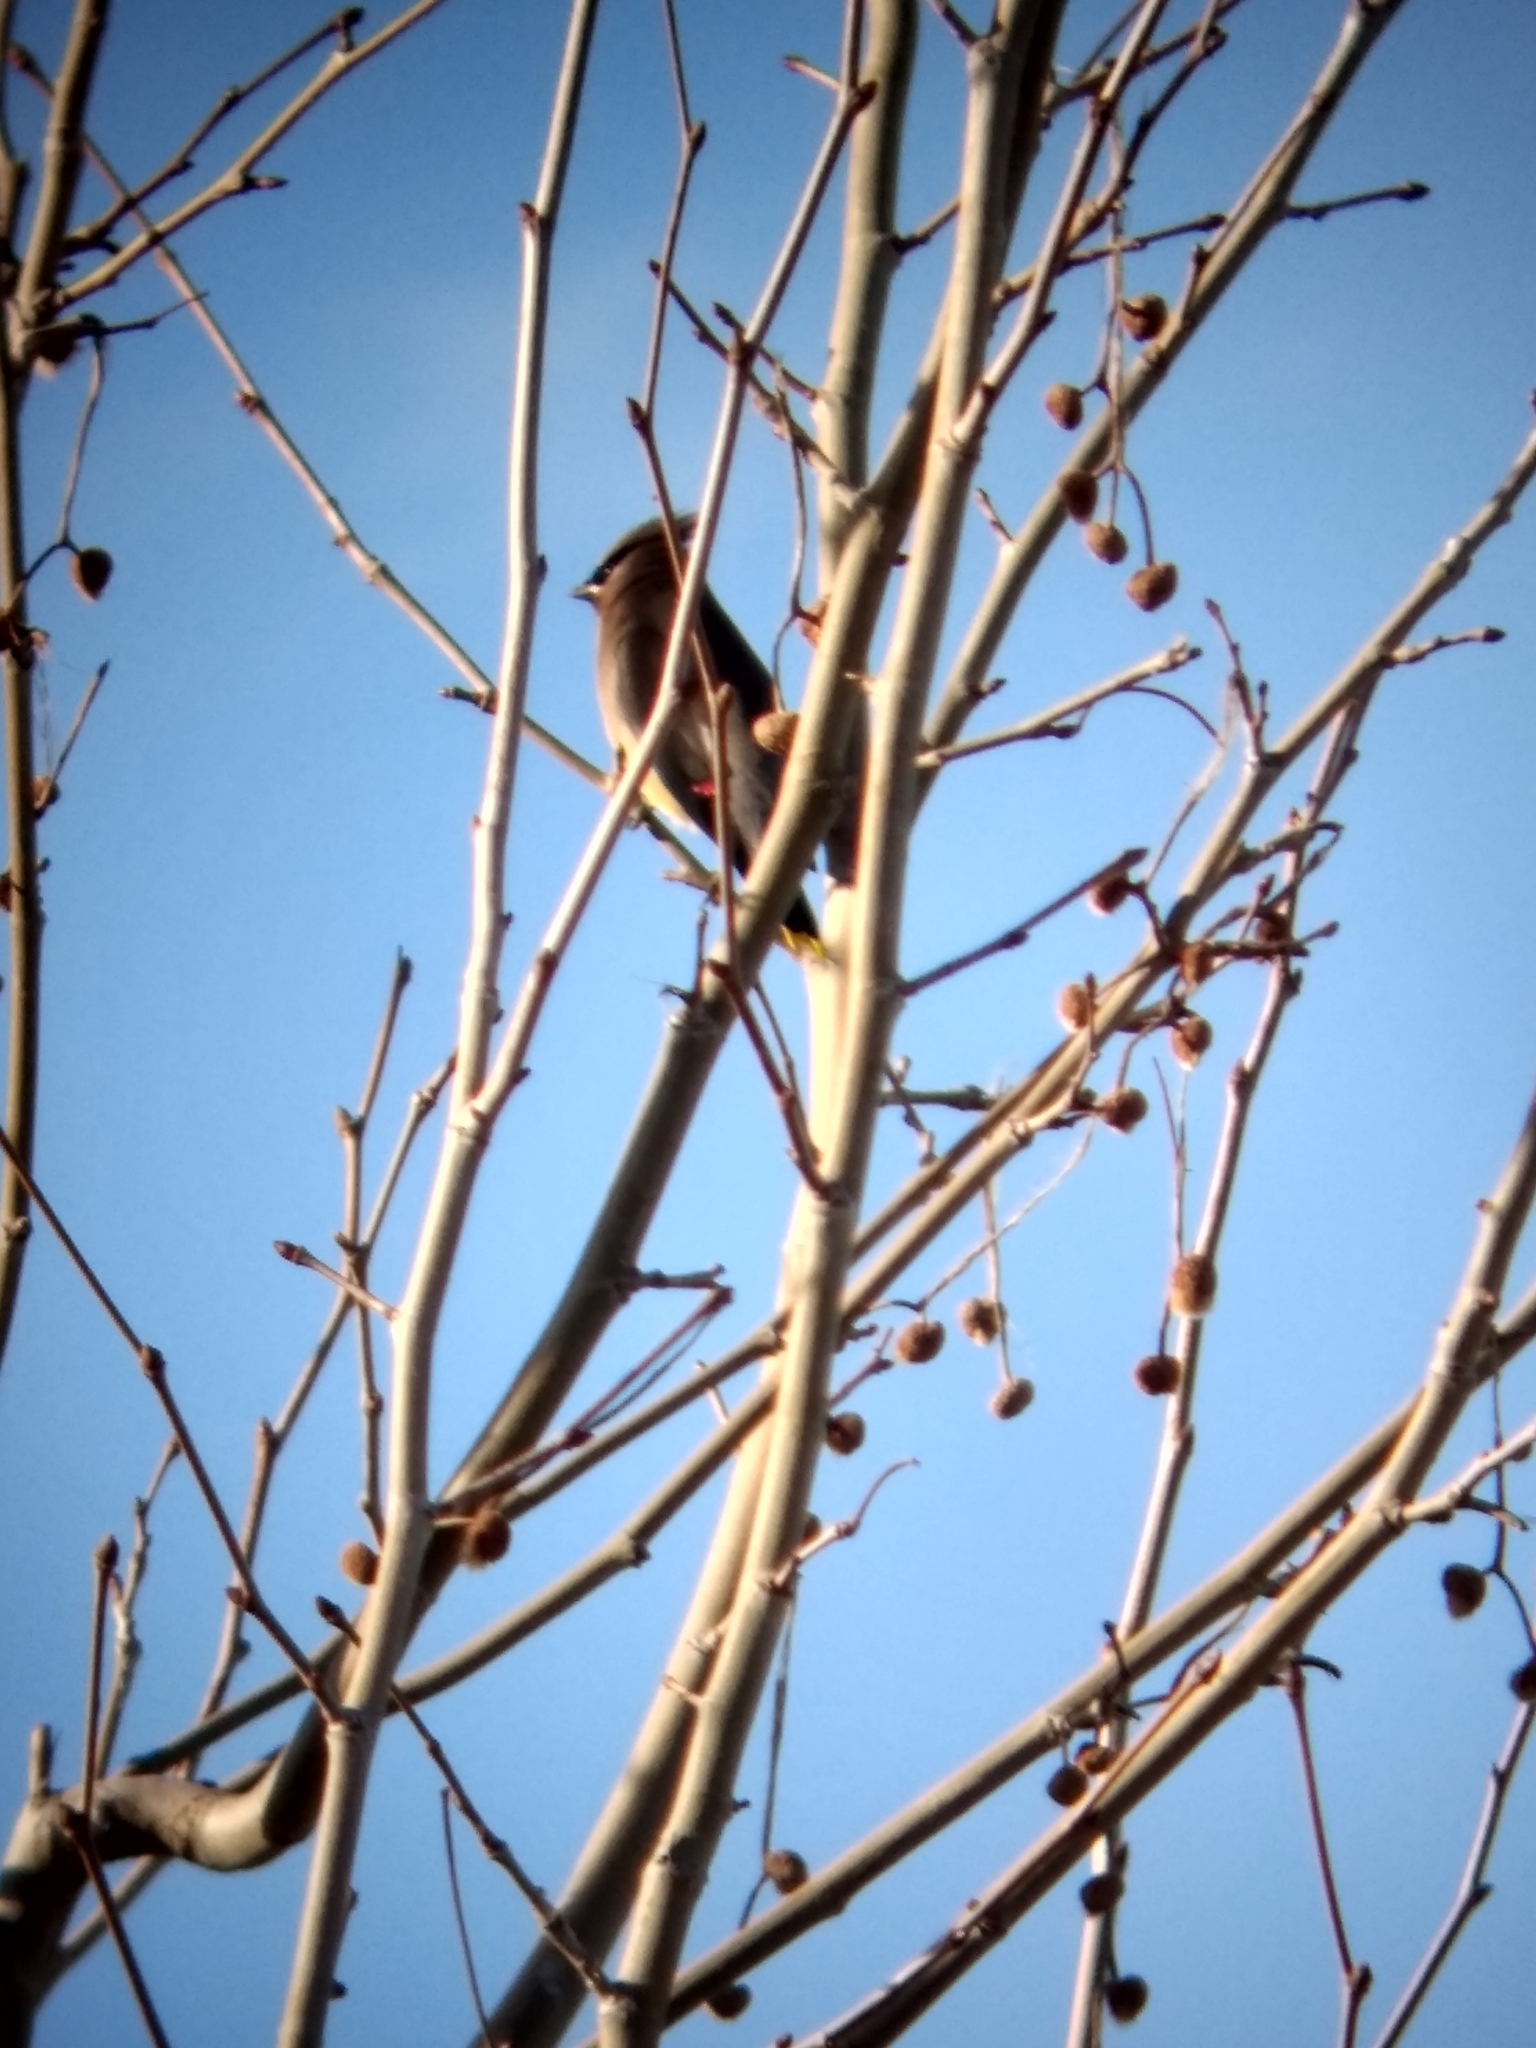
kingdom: Animalia
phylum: Chordata
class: Aves
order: Passeriformes
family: Bombycillidae
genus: Bombycilla
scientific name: Bombycilla cedrorum
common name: Cedar waxwing
